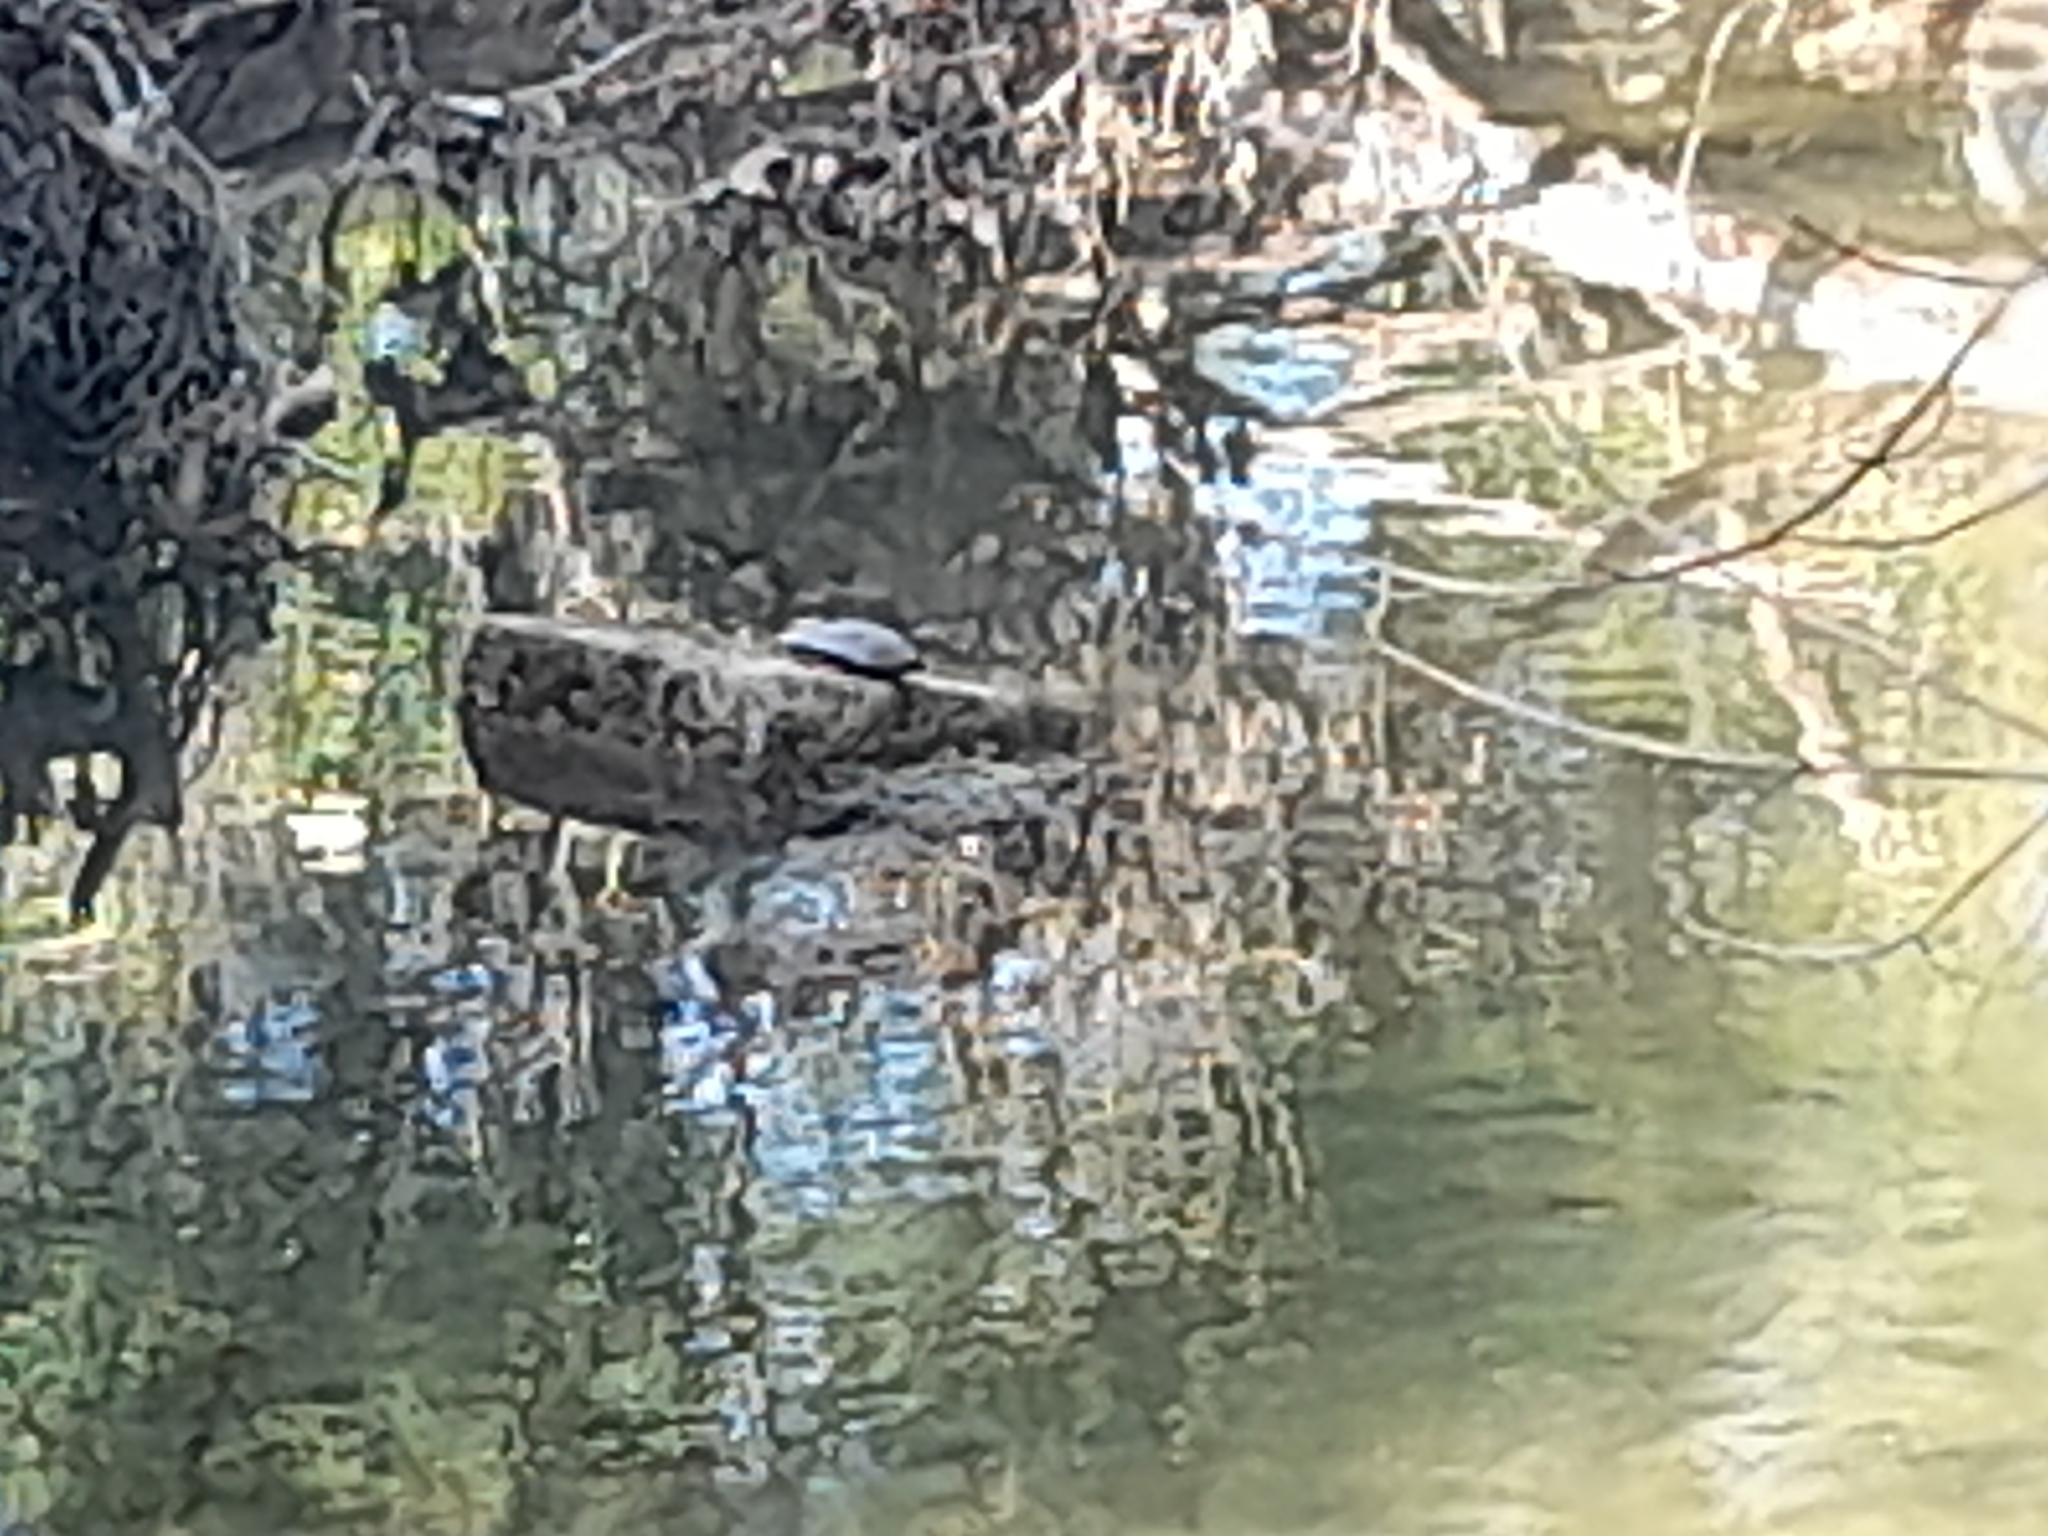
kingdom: Animalia
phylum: Chordata
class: Testudines
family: Emydidae
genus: Trachemys
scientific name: Trachemys scripta
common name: Slider
